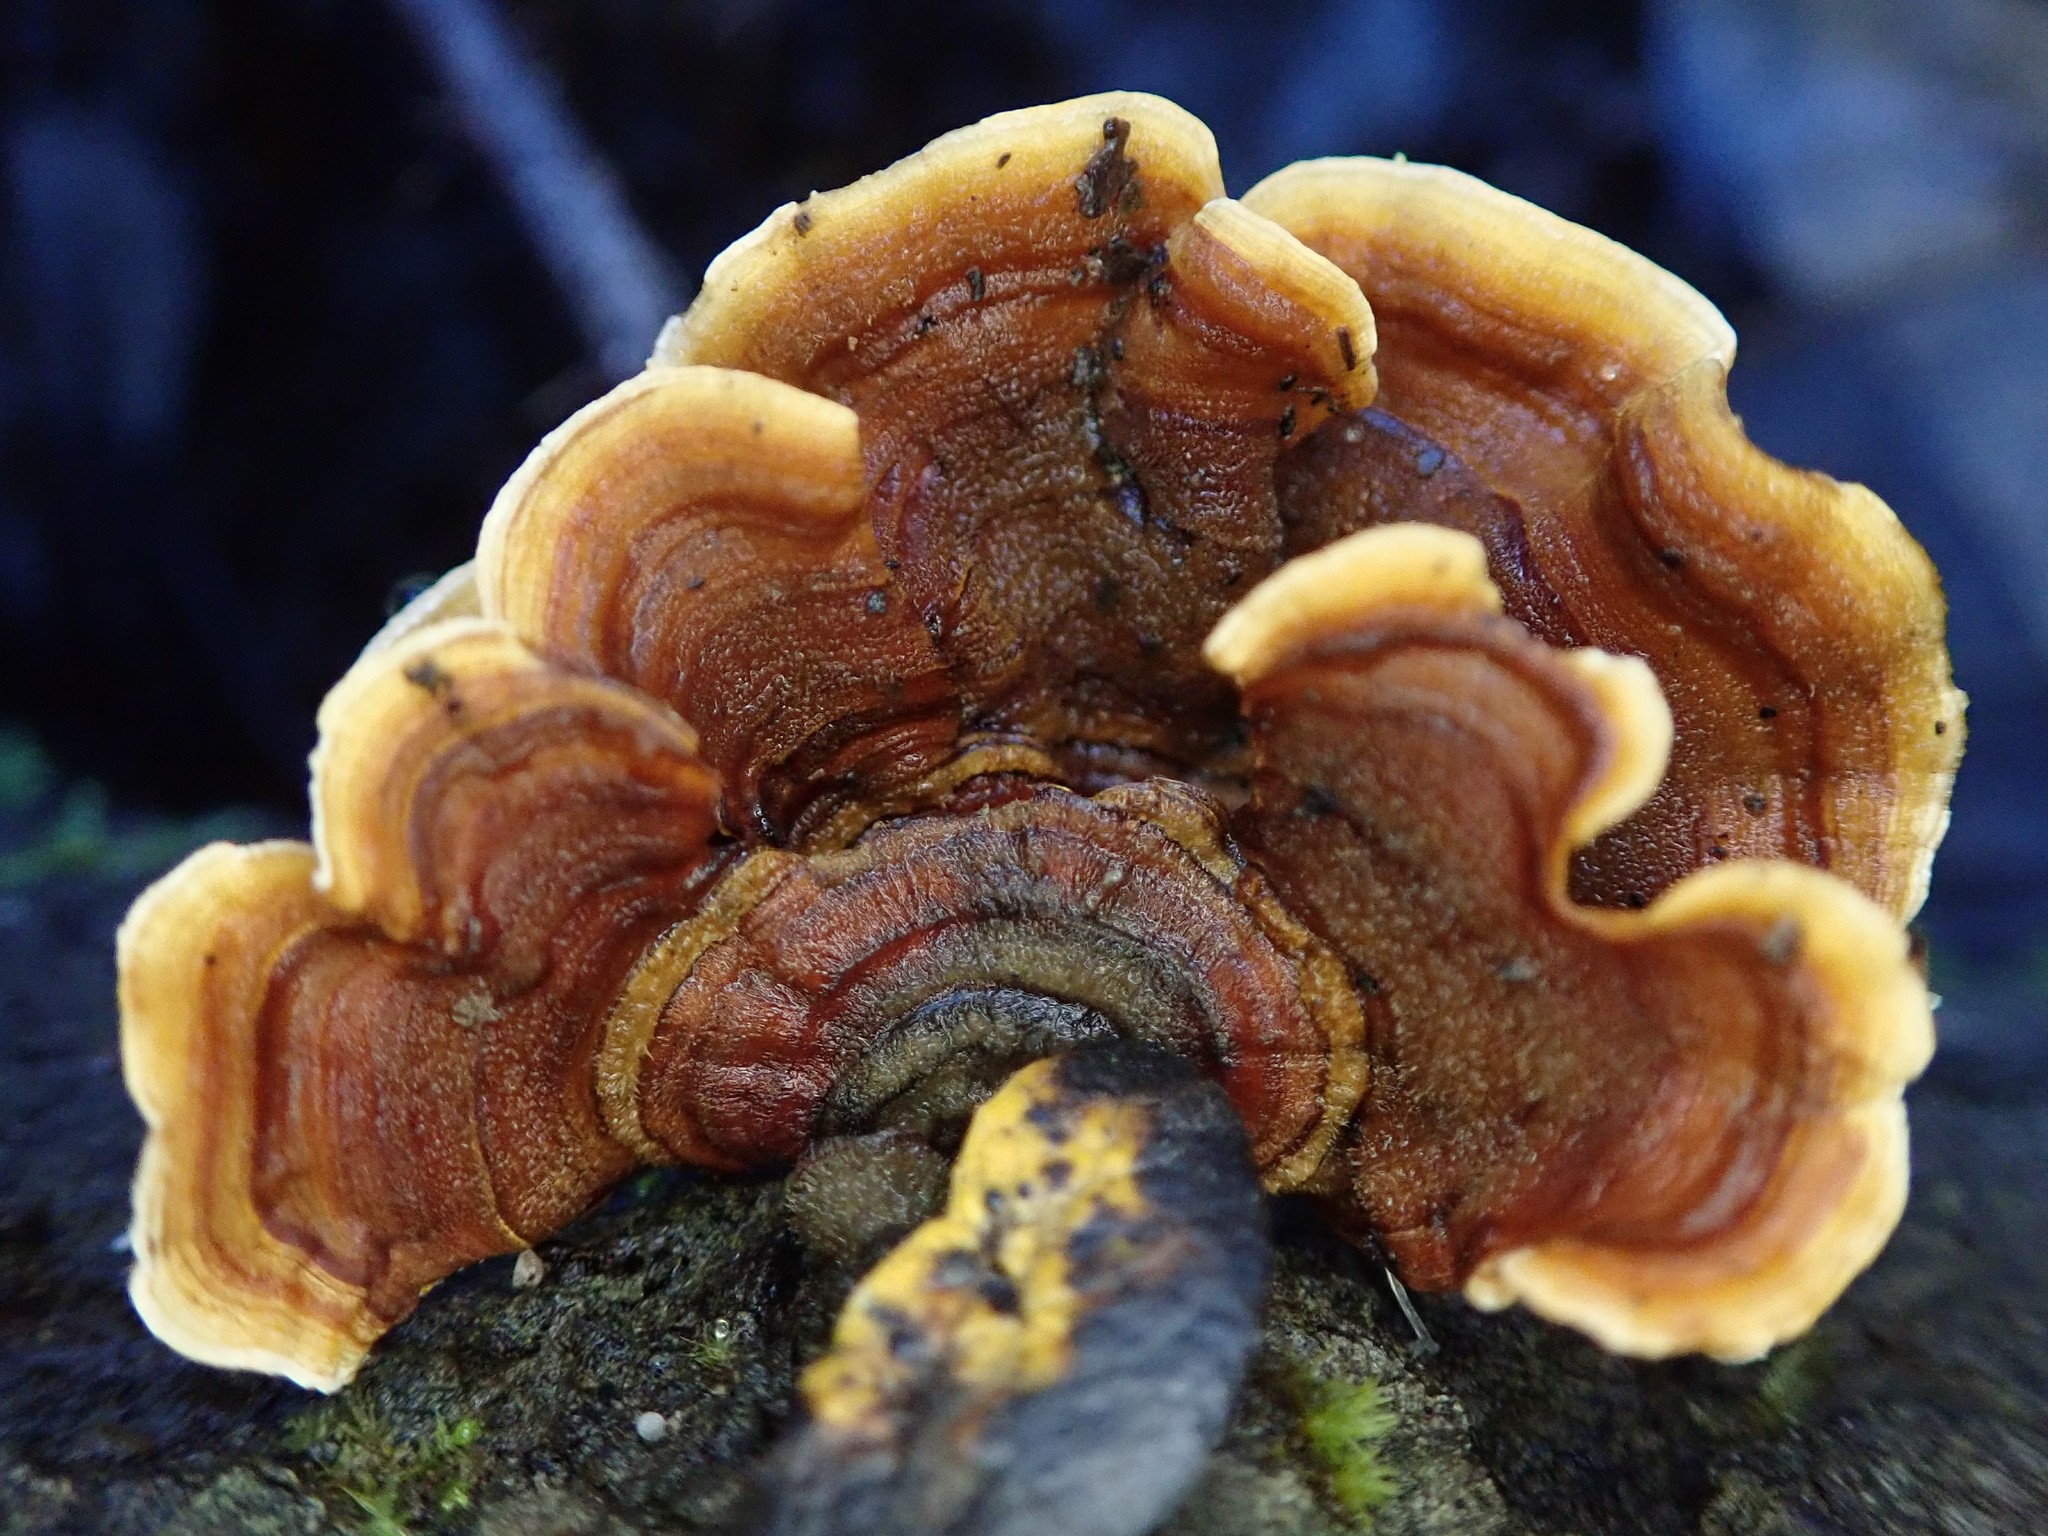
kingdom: Fungi
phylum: Basidiomycota
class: Agaricomycetes
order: Russulales
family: Stereaceae
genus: Stereum
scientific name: Stereum hirsutum
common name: Hairy curtain crust
